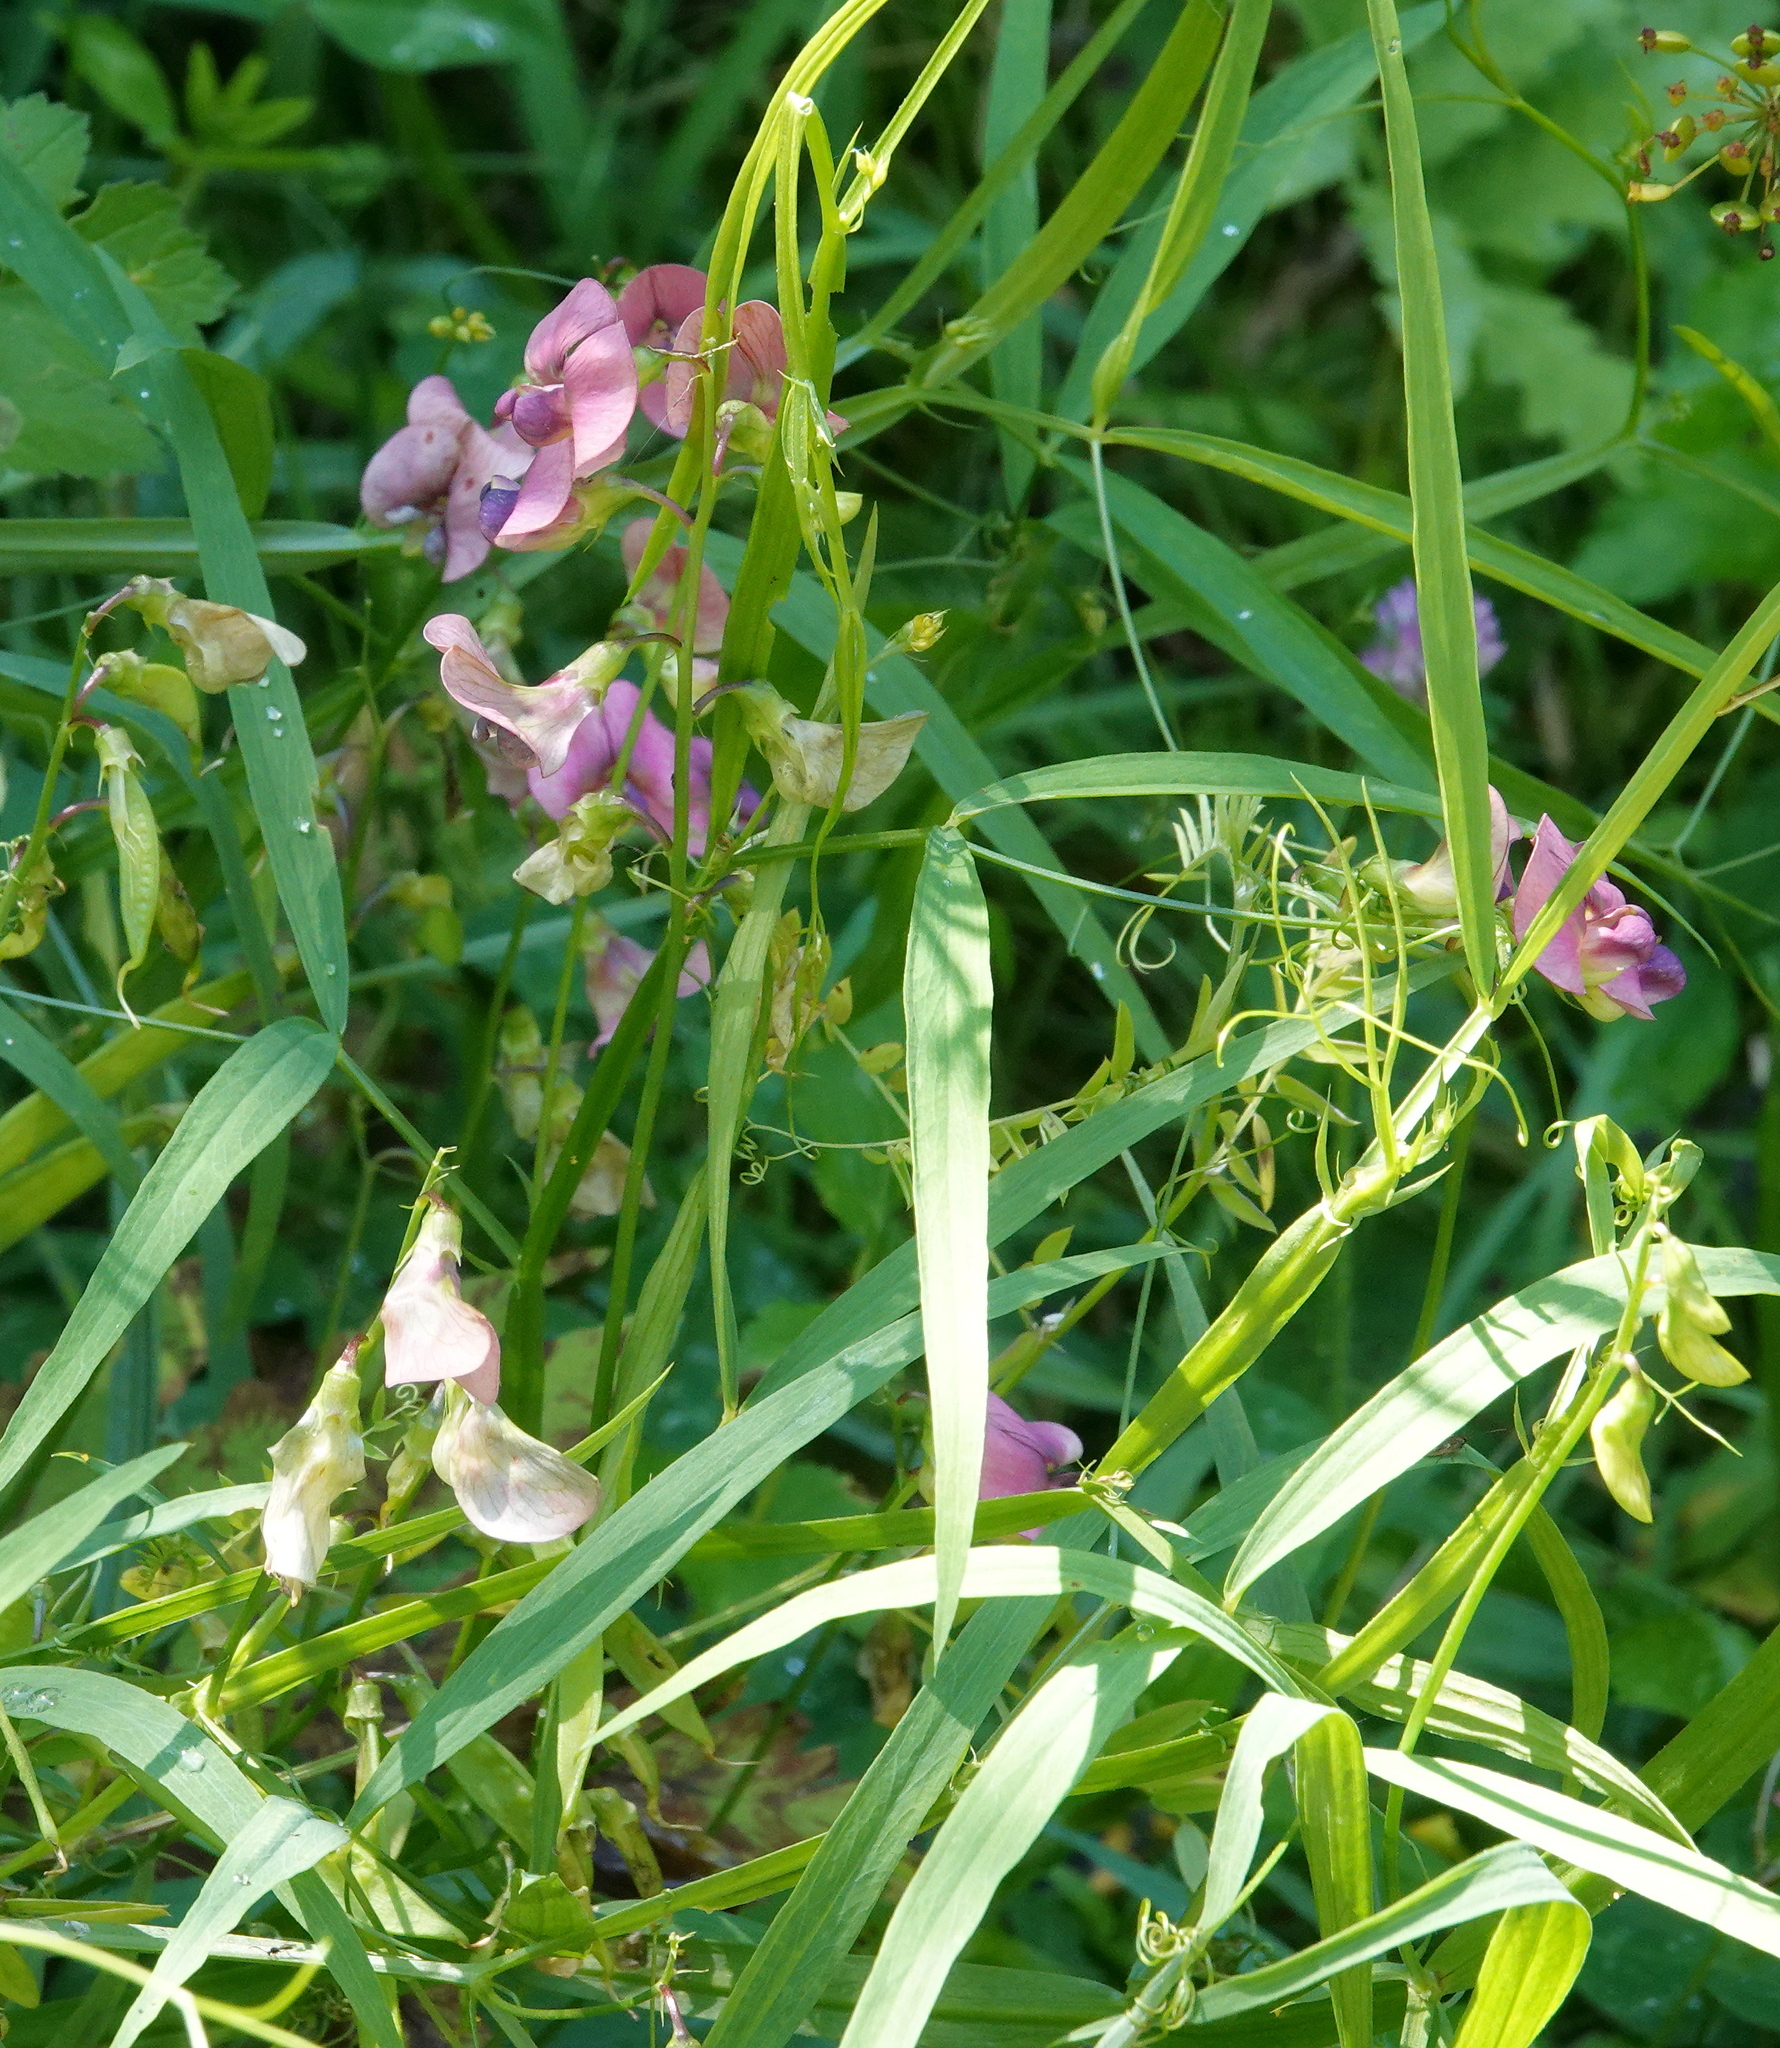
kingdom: Plantae
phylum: Tracheophyta
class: Magnoliopsida
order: Fabales
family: Fabaceae
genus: Lathyrus
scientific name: Lathyrus sylvestris
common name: Flat pea
